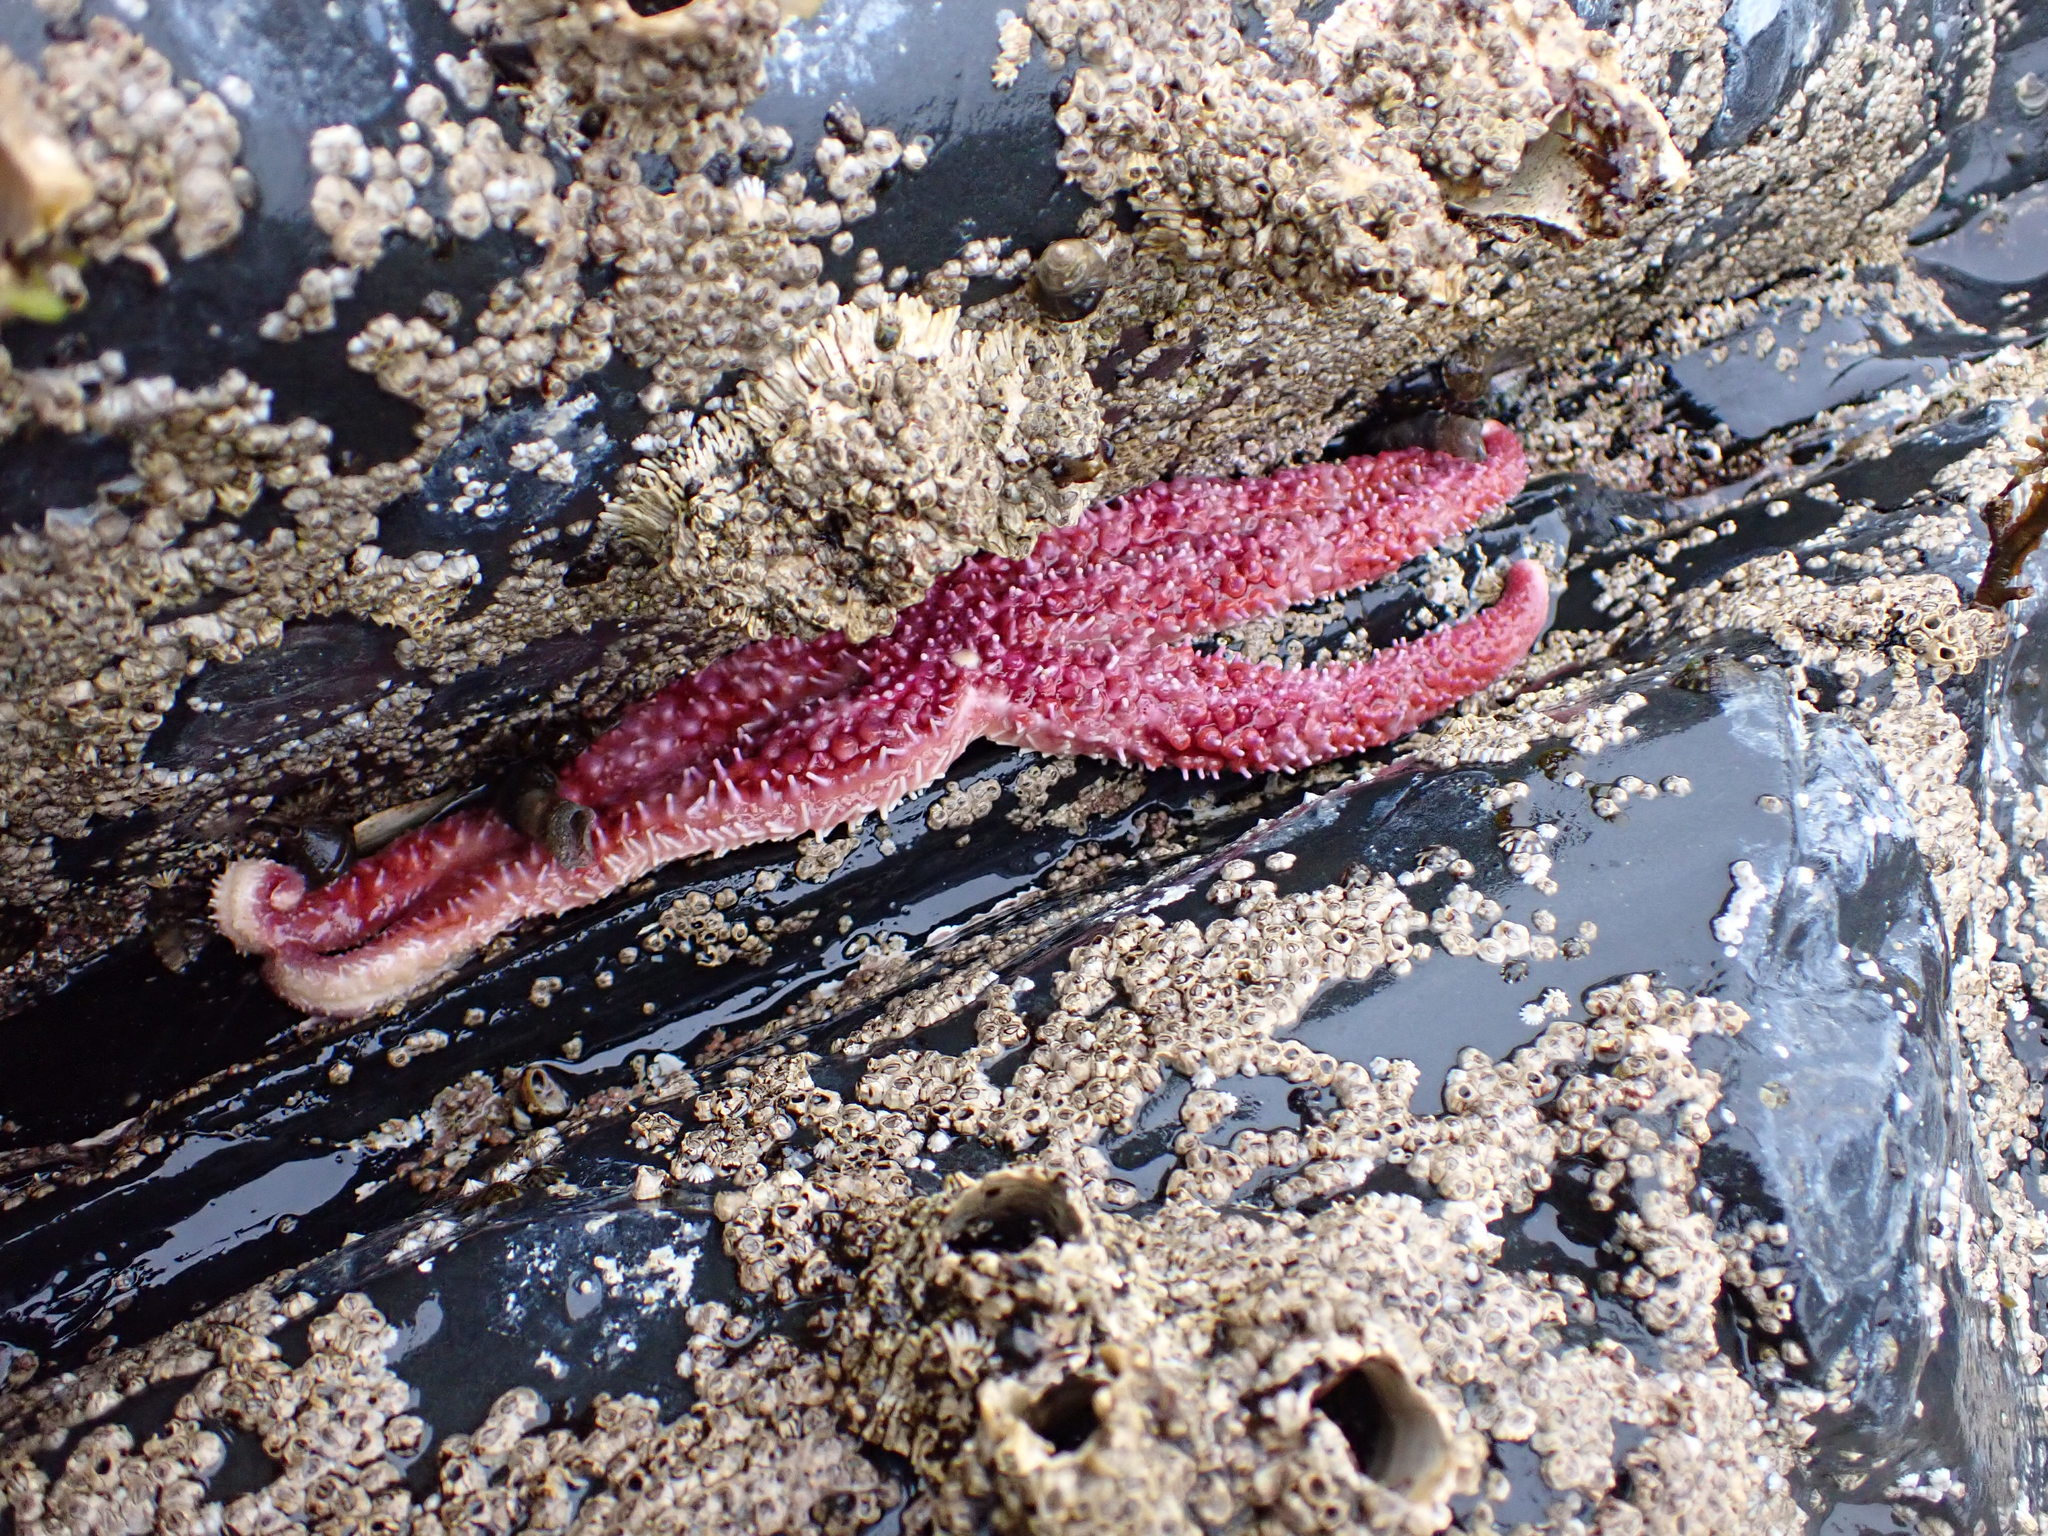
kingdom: Animalia
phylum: Echinodermata
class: Asteroidea
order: Forcipulatida
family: Asteriidae
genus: Orthasterias
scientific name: Orthasterias koehleri
